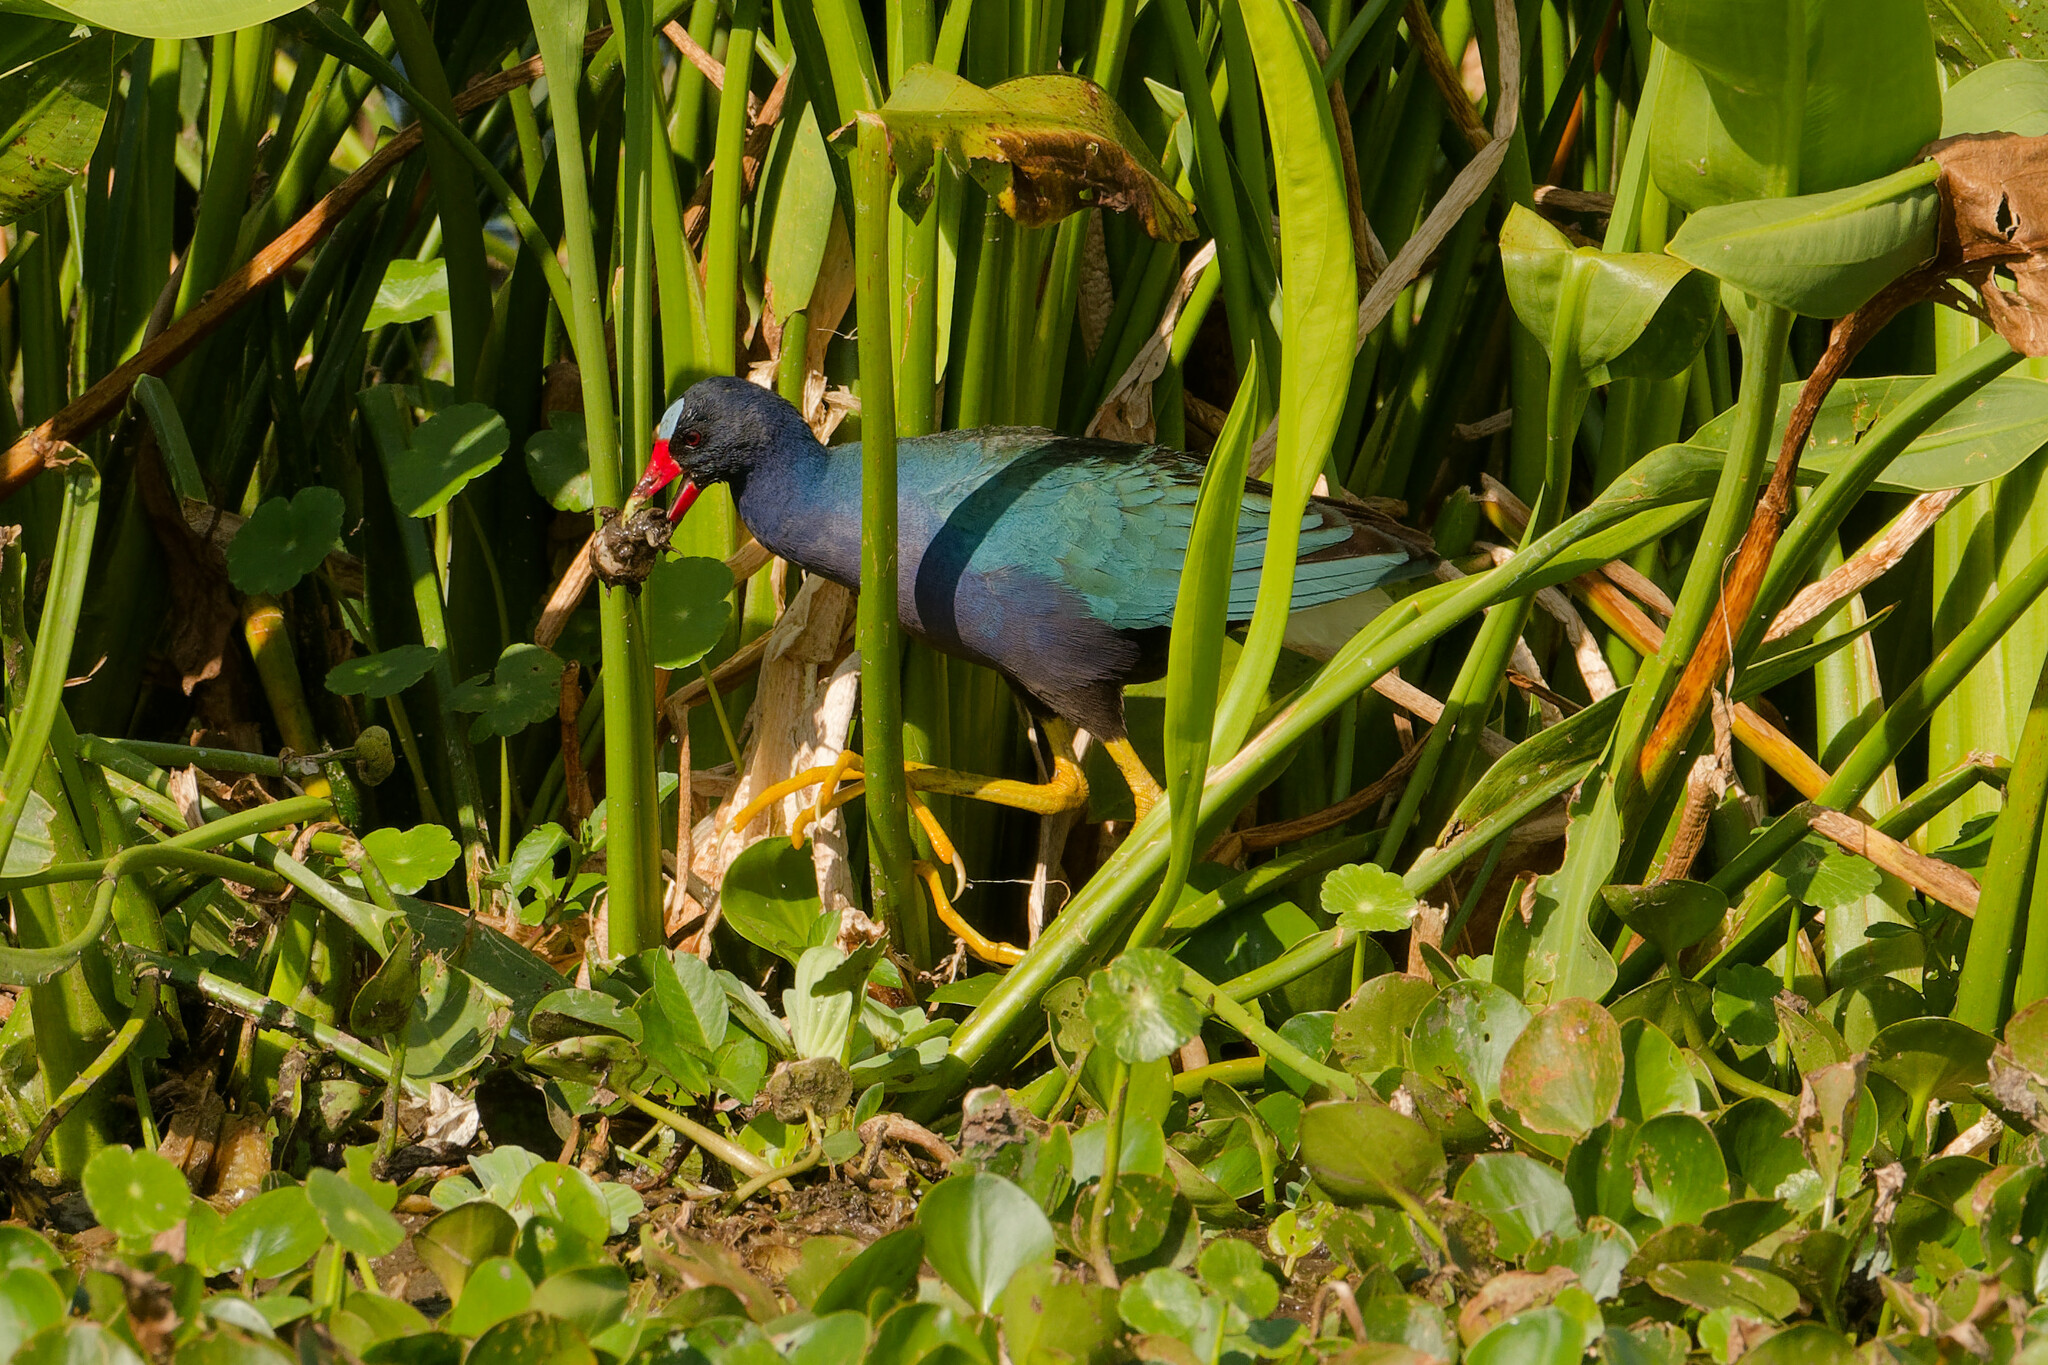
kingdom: Animalia
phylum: Chordata
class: Aves
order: Gruiformes
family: Rallidae
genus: Porphyrio
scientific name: Porphyrio martinica
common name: Purple gallinule
